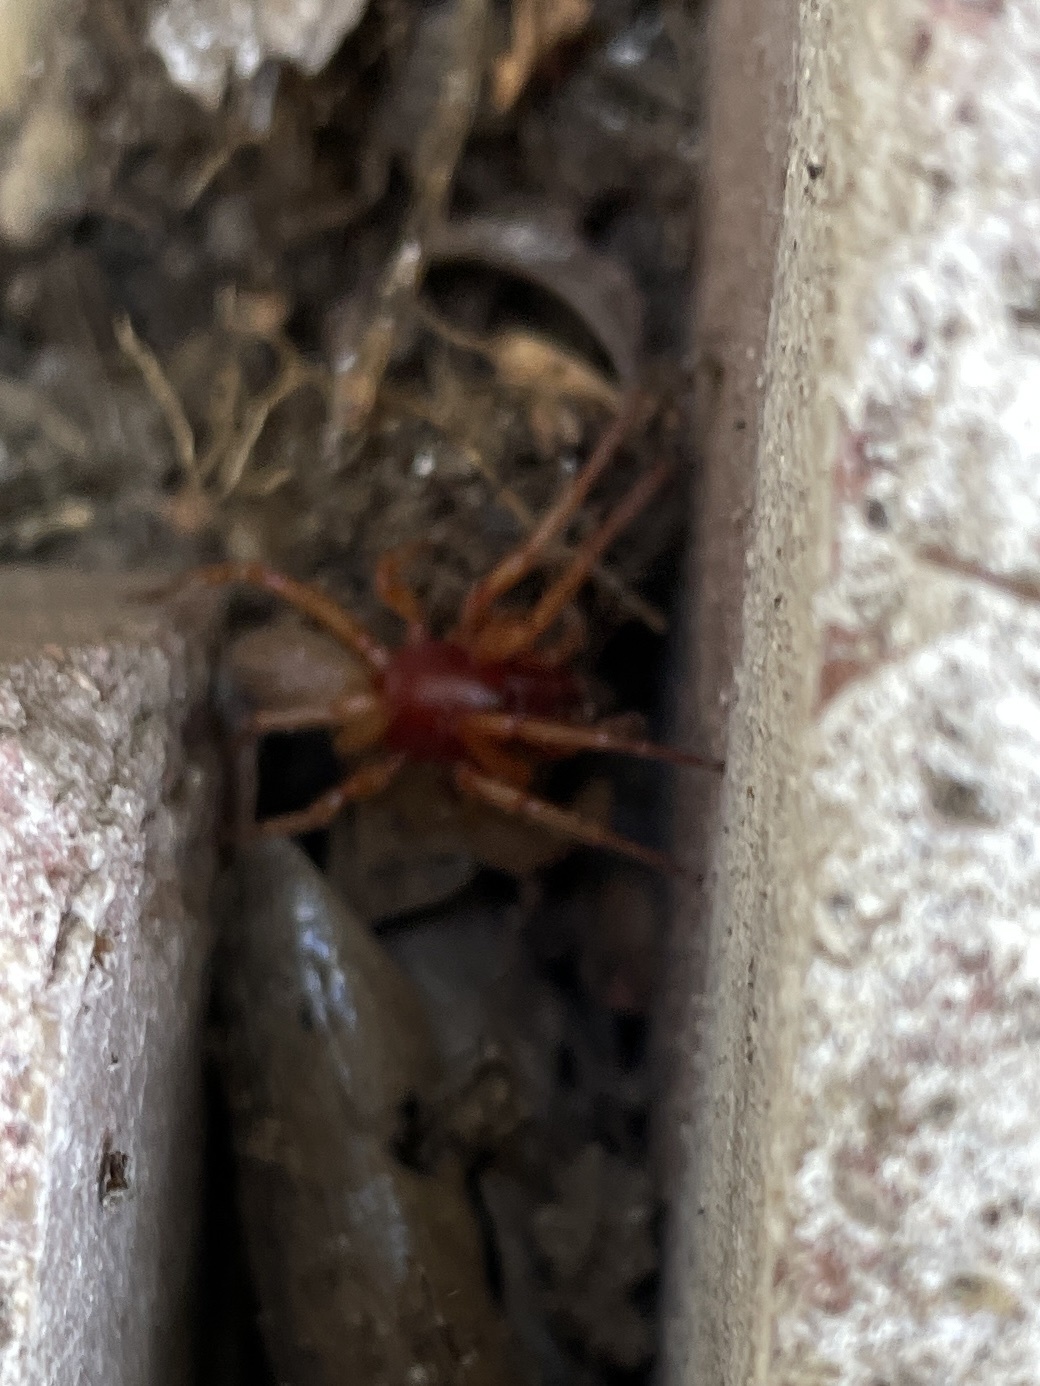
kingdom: Animalia
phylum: Arthropoda
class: Arachnida
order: Araneae
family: Dysderidae
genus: Dysdera
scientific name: Dysdera crocata
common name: Woodlouse spider
